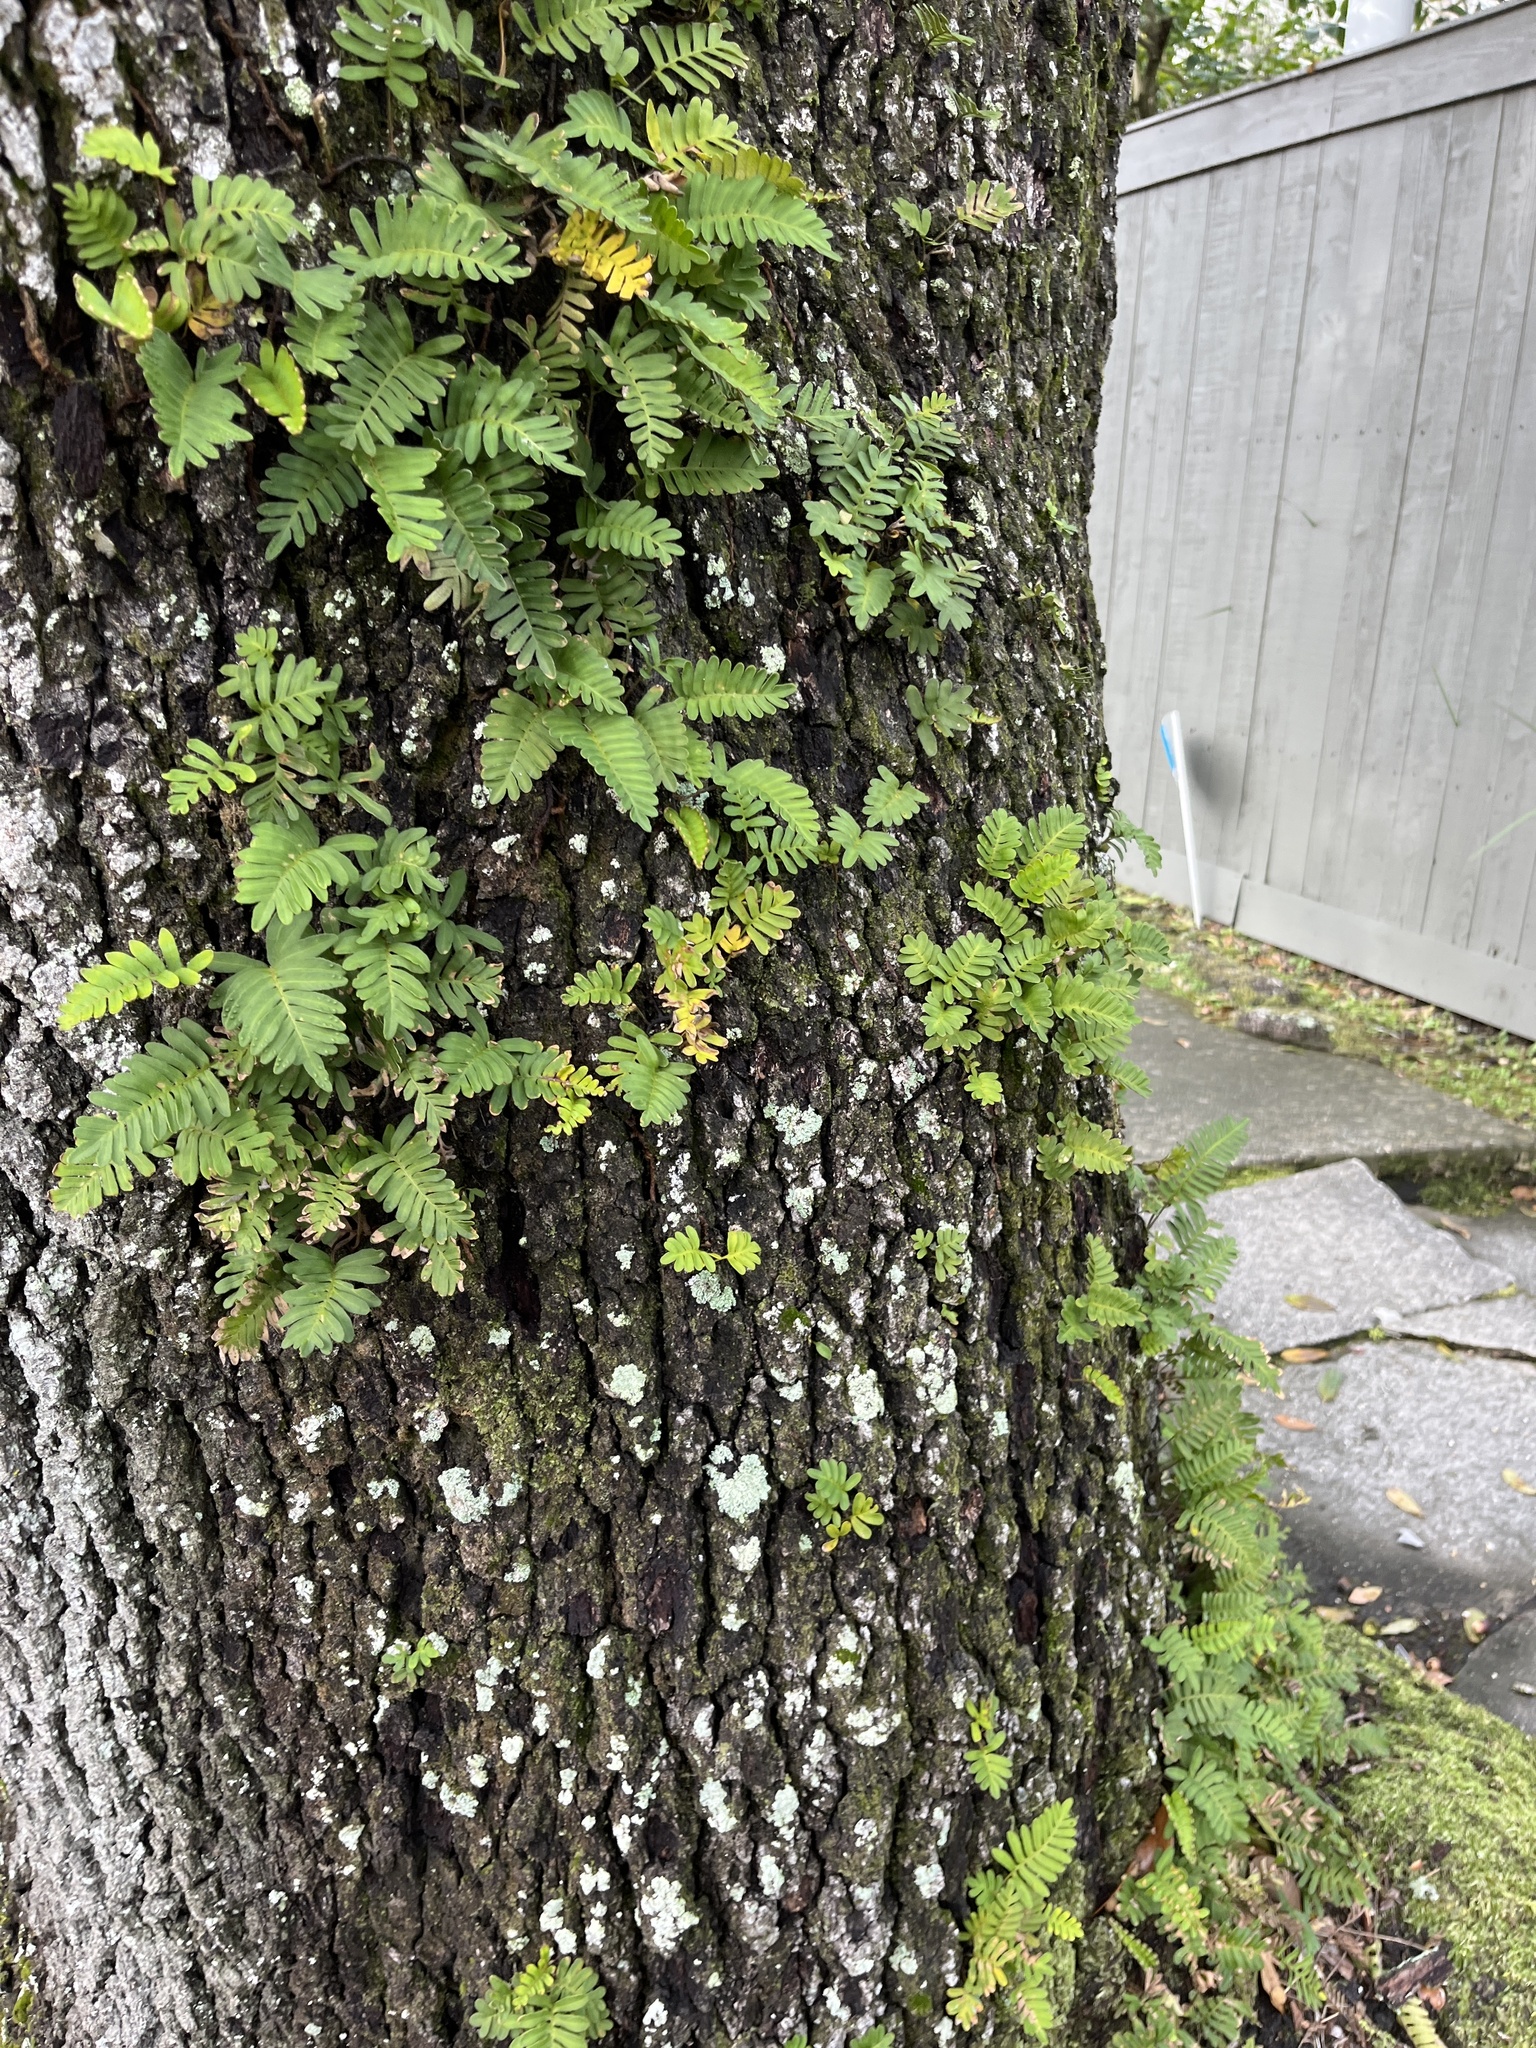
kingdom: Plantae
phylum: Tracheophyta
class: Polypodiopsida
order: Polypodiales
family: Polypodiaceae
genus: Pleopeltis
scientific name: Pleopeltis michauxiana
